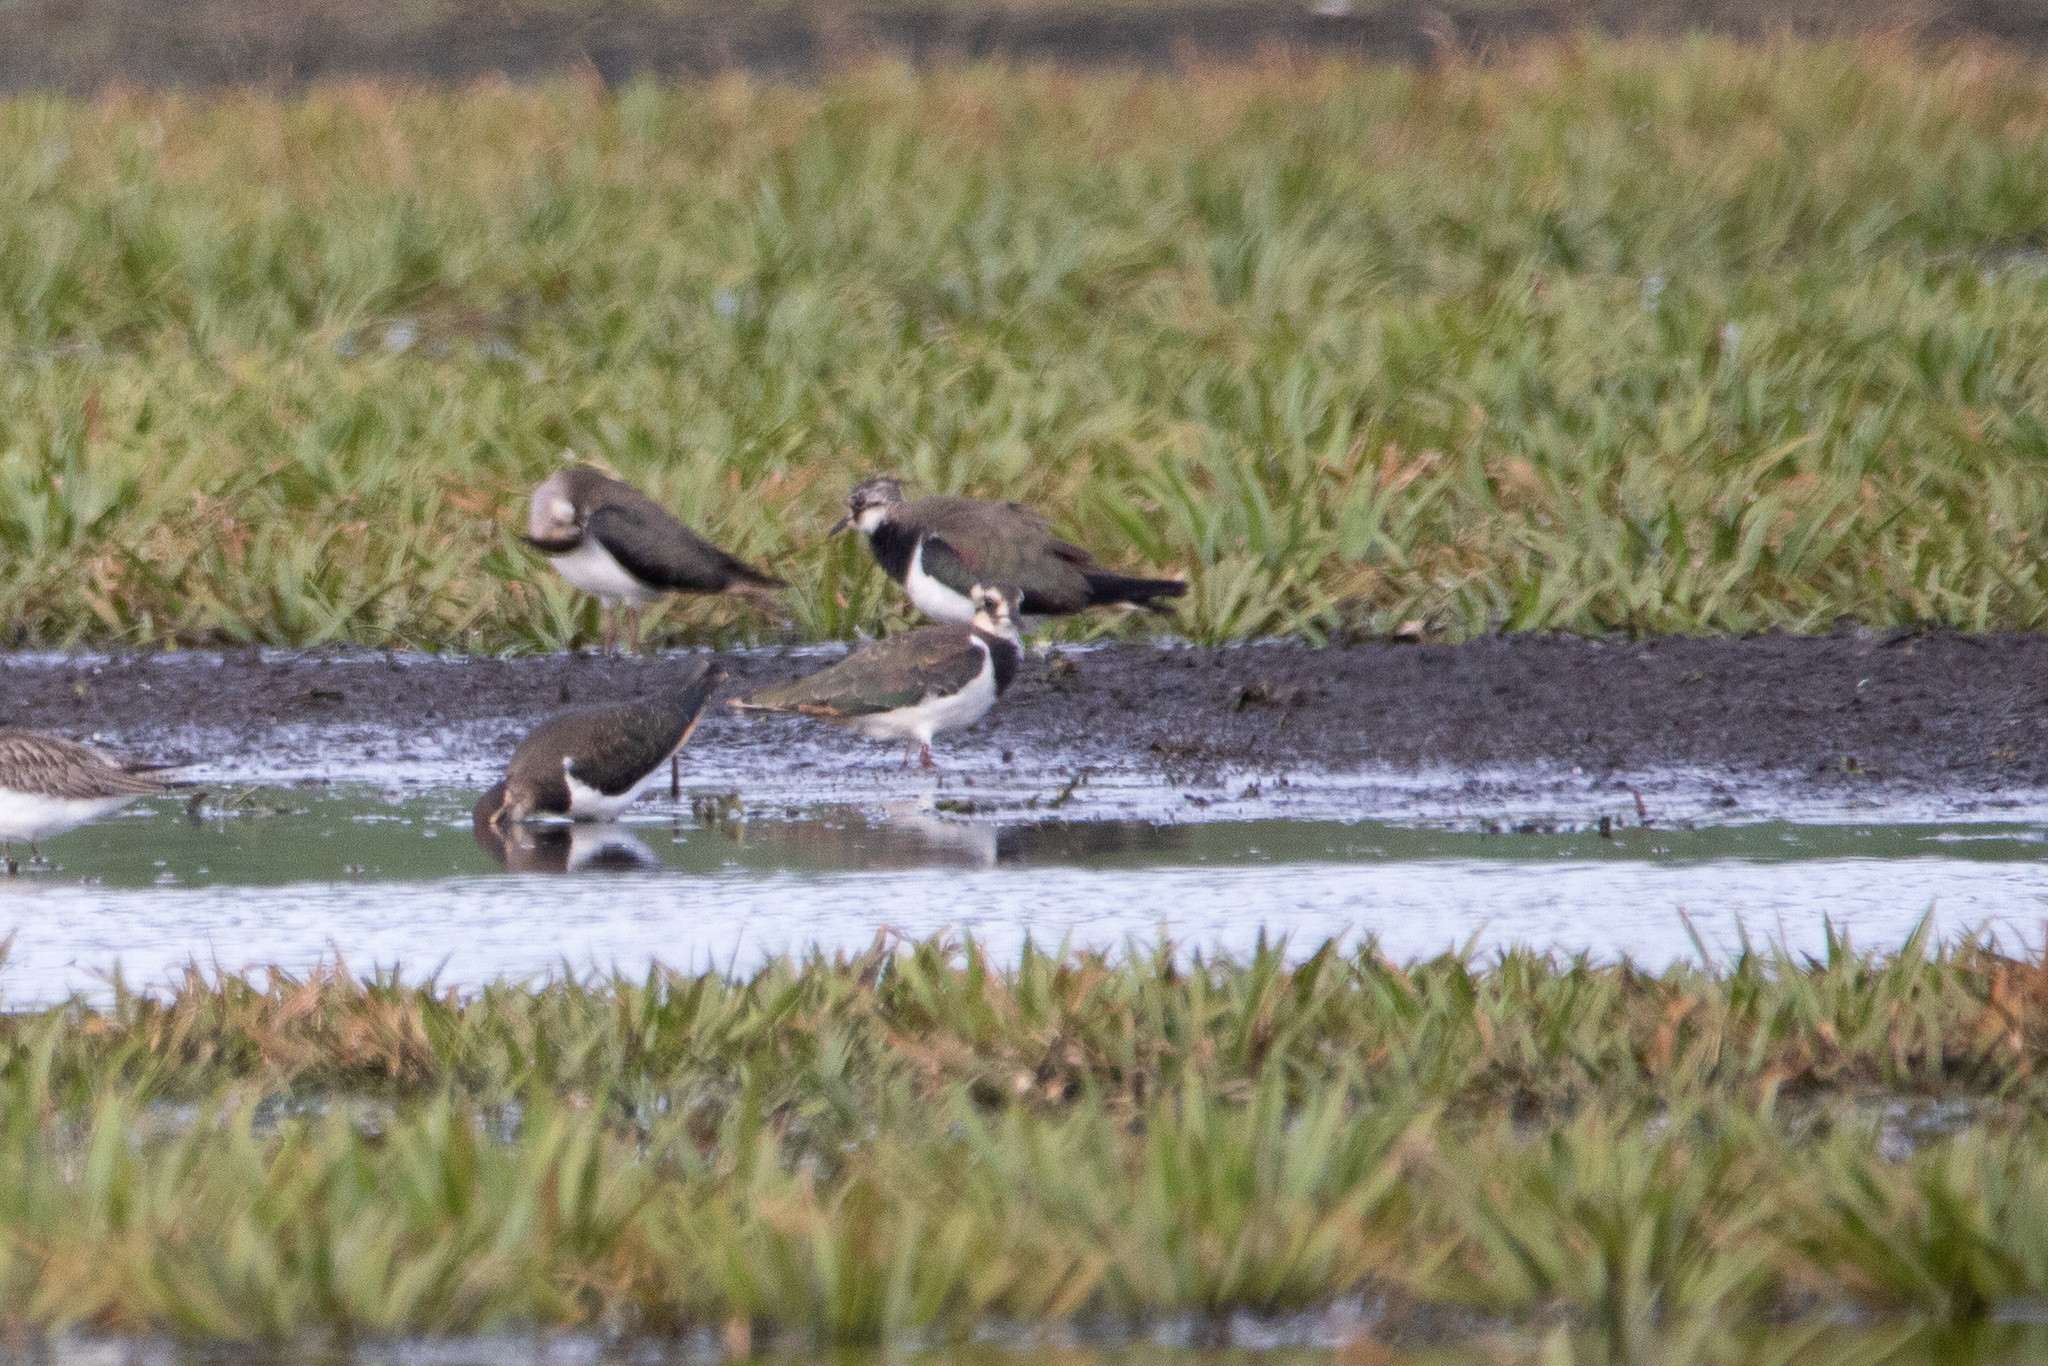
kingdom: Animalia
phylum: Chordata
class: Aves
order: Charadriiformes
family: Charadriidae
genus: Vanellus
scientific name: Vanellus vanellus
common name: Northern lapwing
